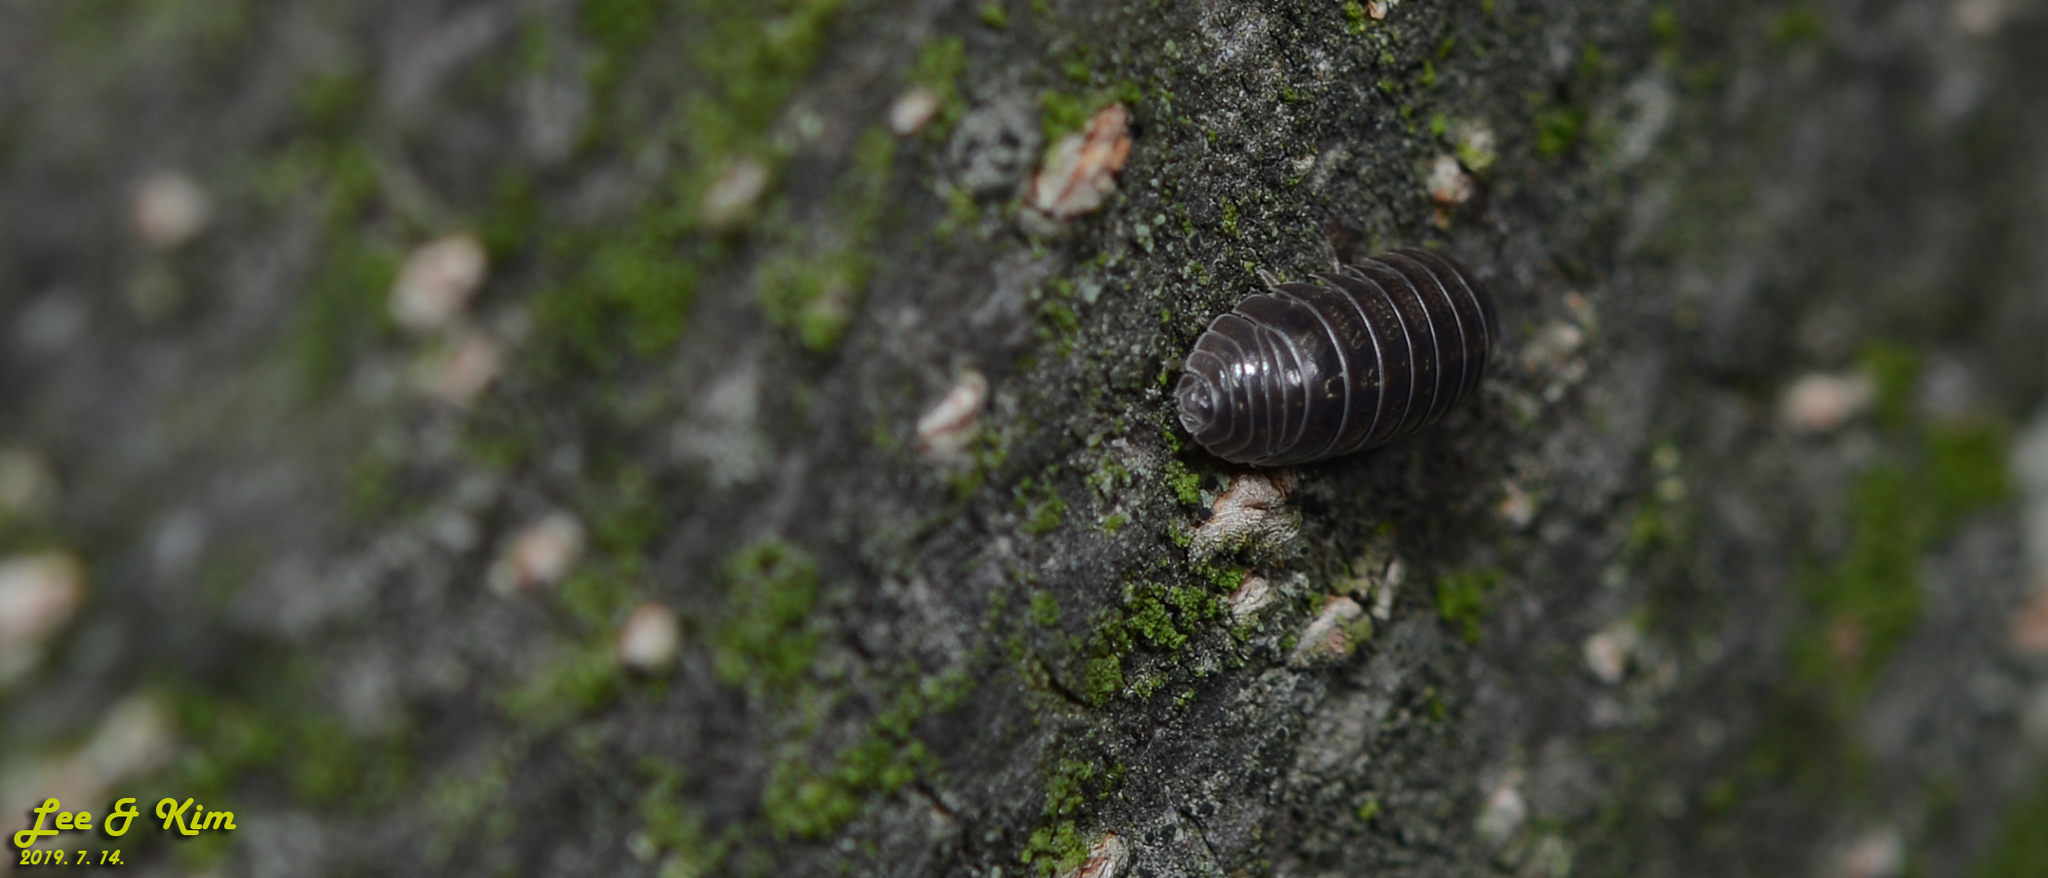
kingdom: Animalia
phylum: Arthropoda
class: Malacostraca
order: Isopoda
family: Armadillidiidae
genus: Armadillidium
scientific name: Armadillidium vulgare
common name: Common pill woodlouse
